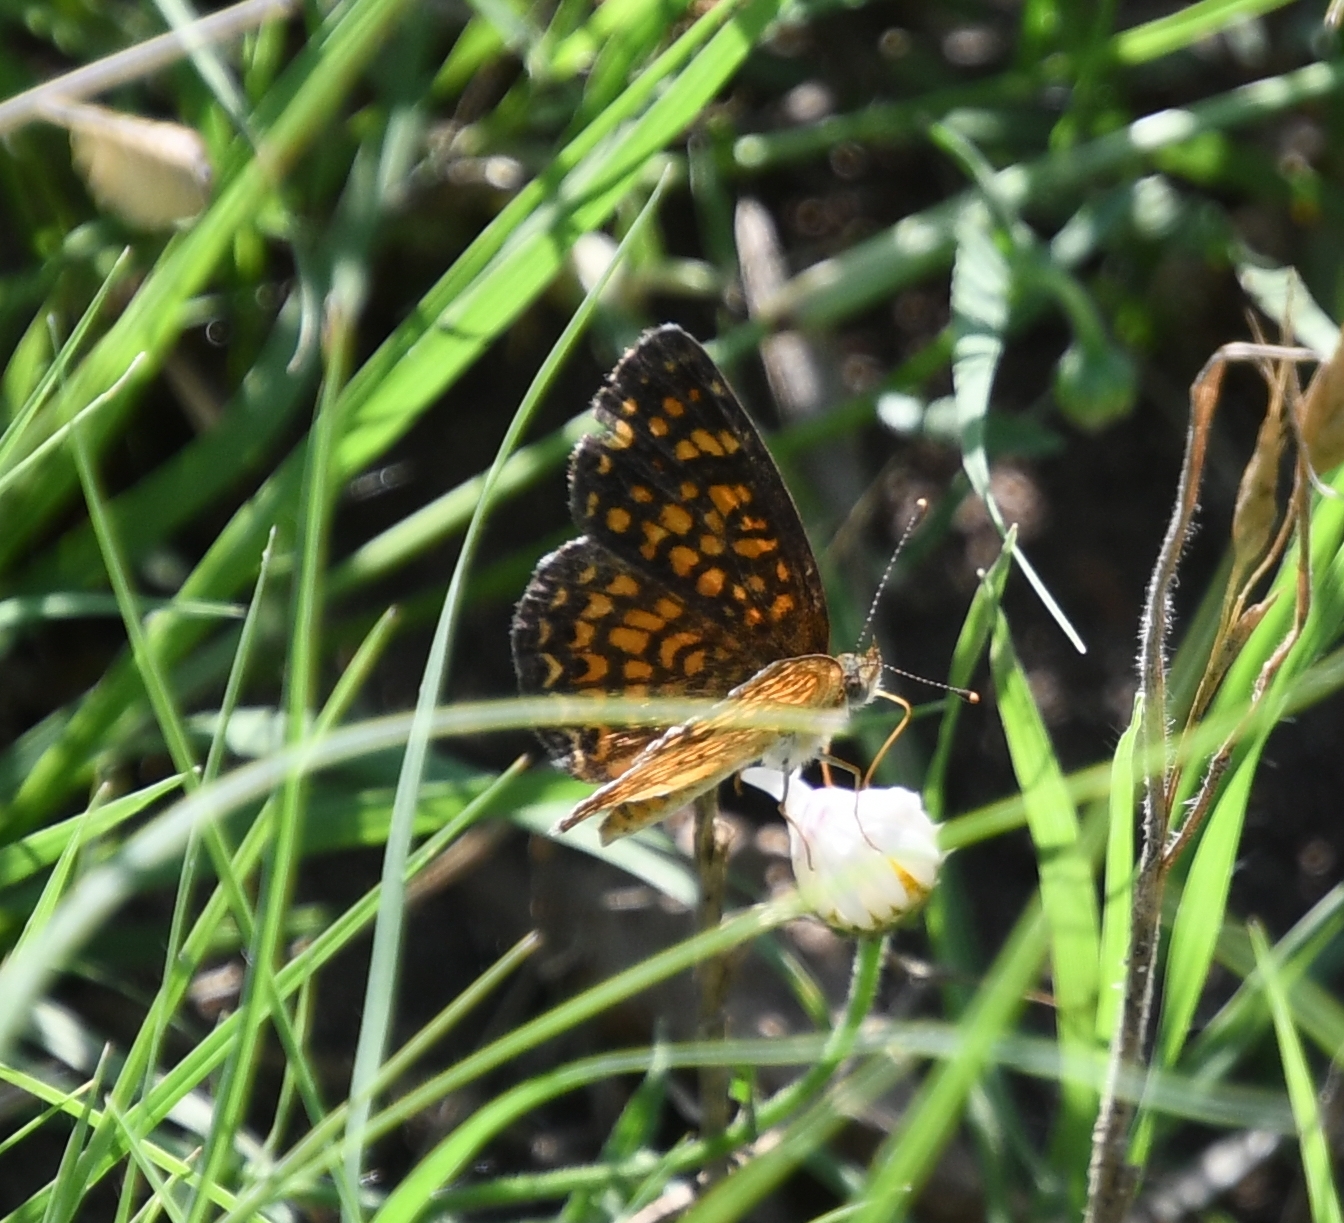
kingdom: Animalia
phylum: Arthropoda
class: Insecta
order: Lepidoptera
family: Nymphalidae
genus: Phyciodes
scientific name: Phyciodes vesta
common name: Vesta crescent
